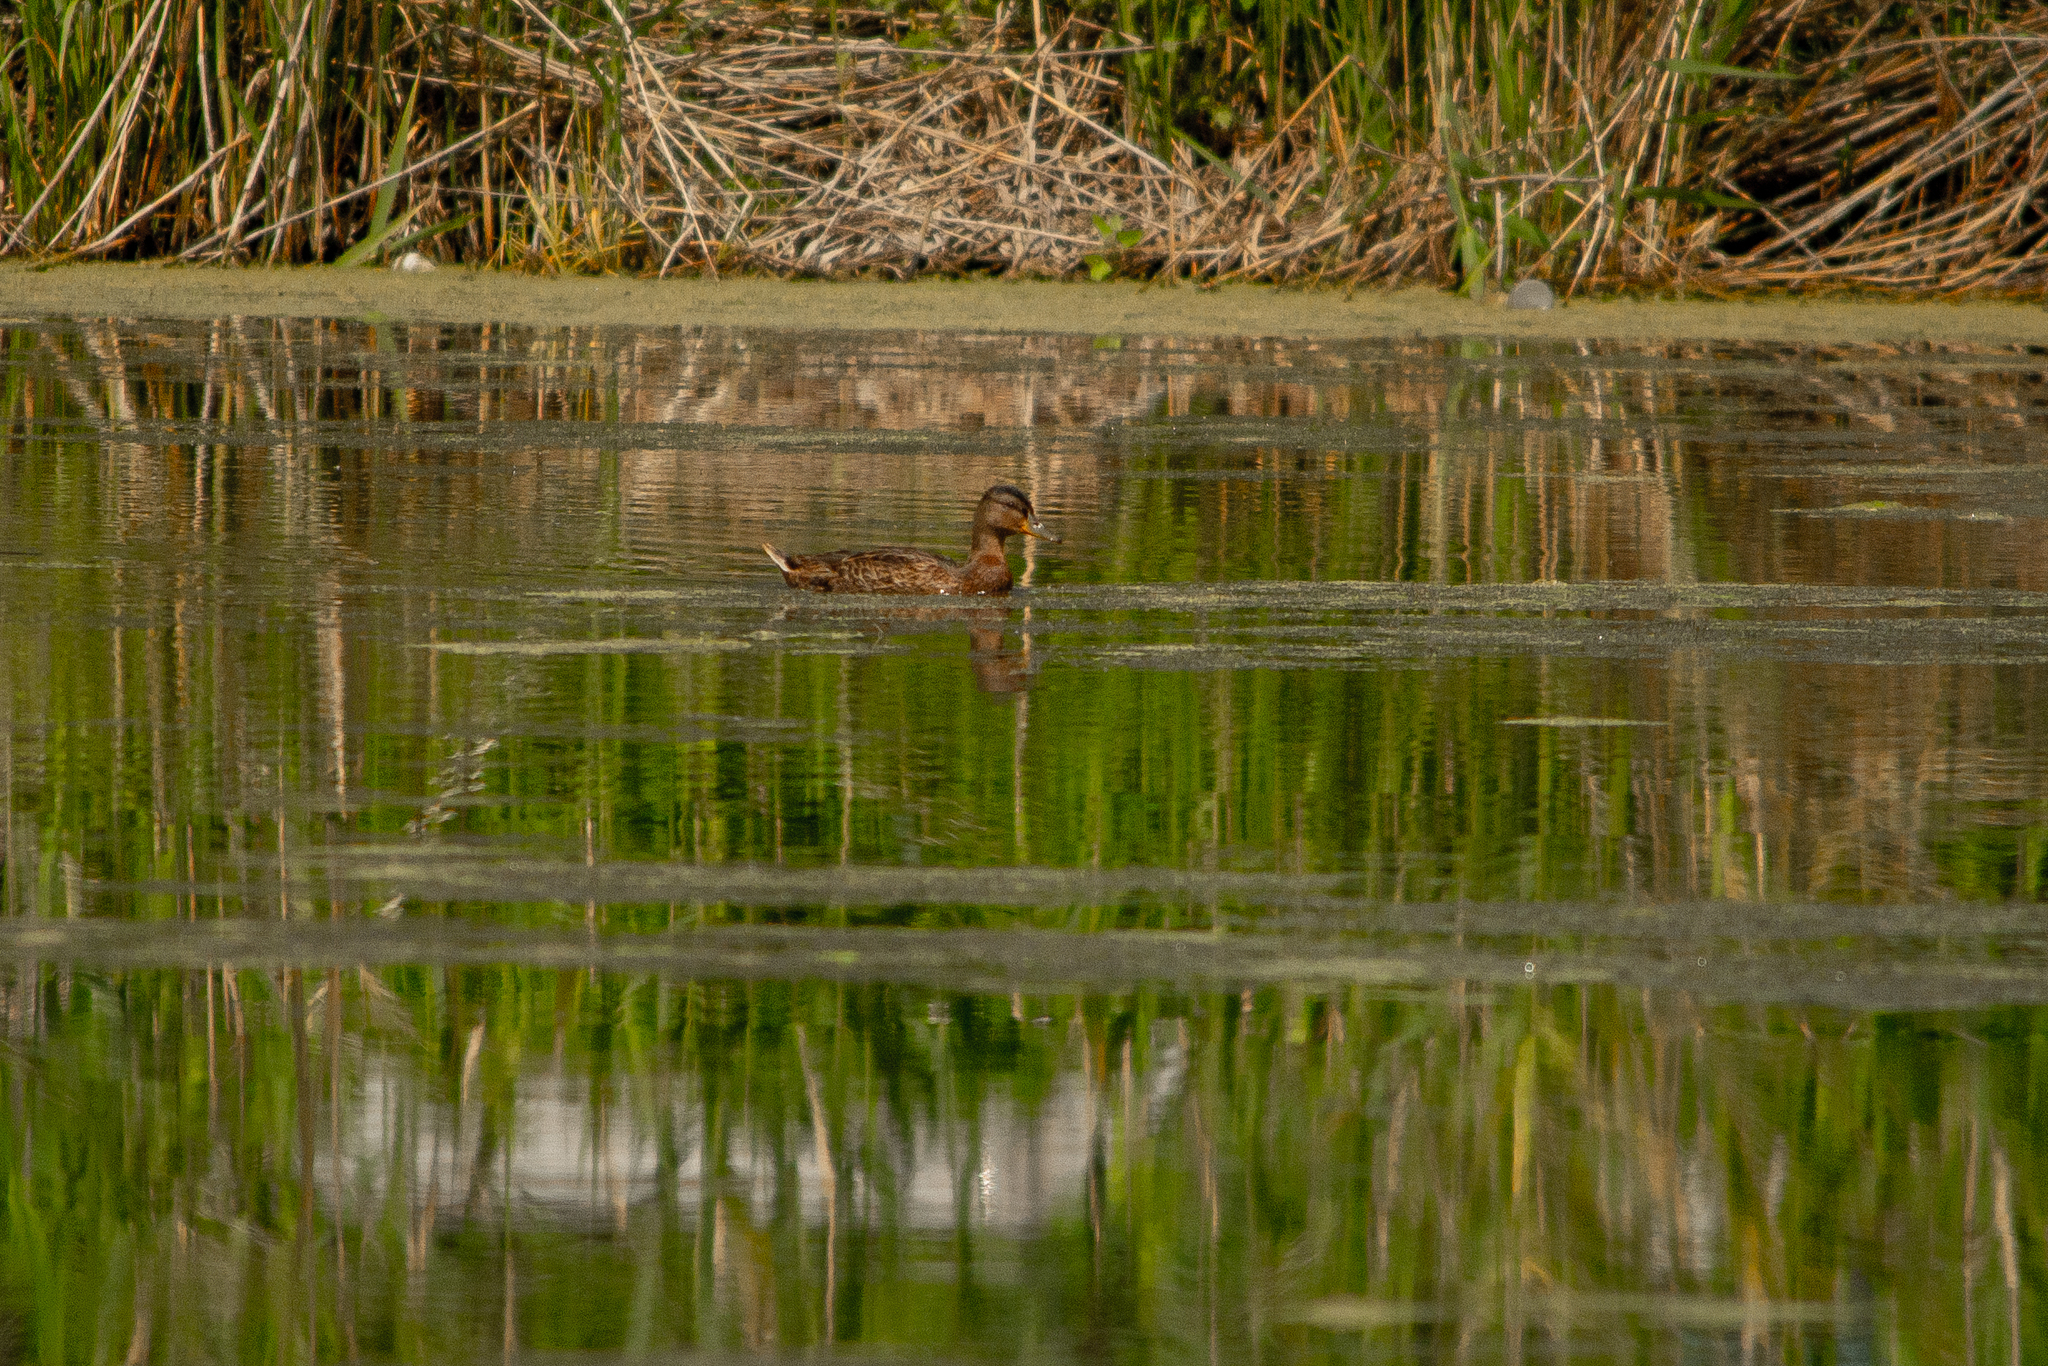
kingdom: Animalia
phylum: Chordata
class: Aves
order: Anseriformes
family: Anatidae
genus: Anas
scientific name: Anas platyrhynchos
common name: Mallard
